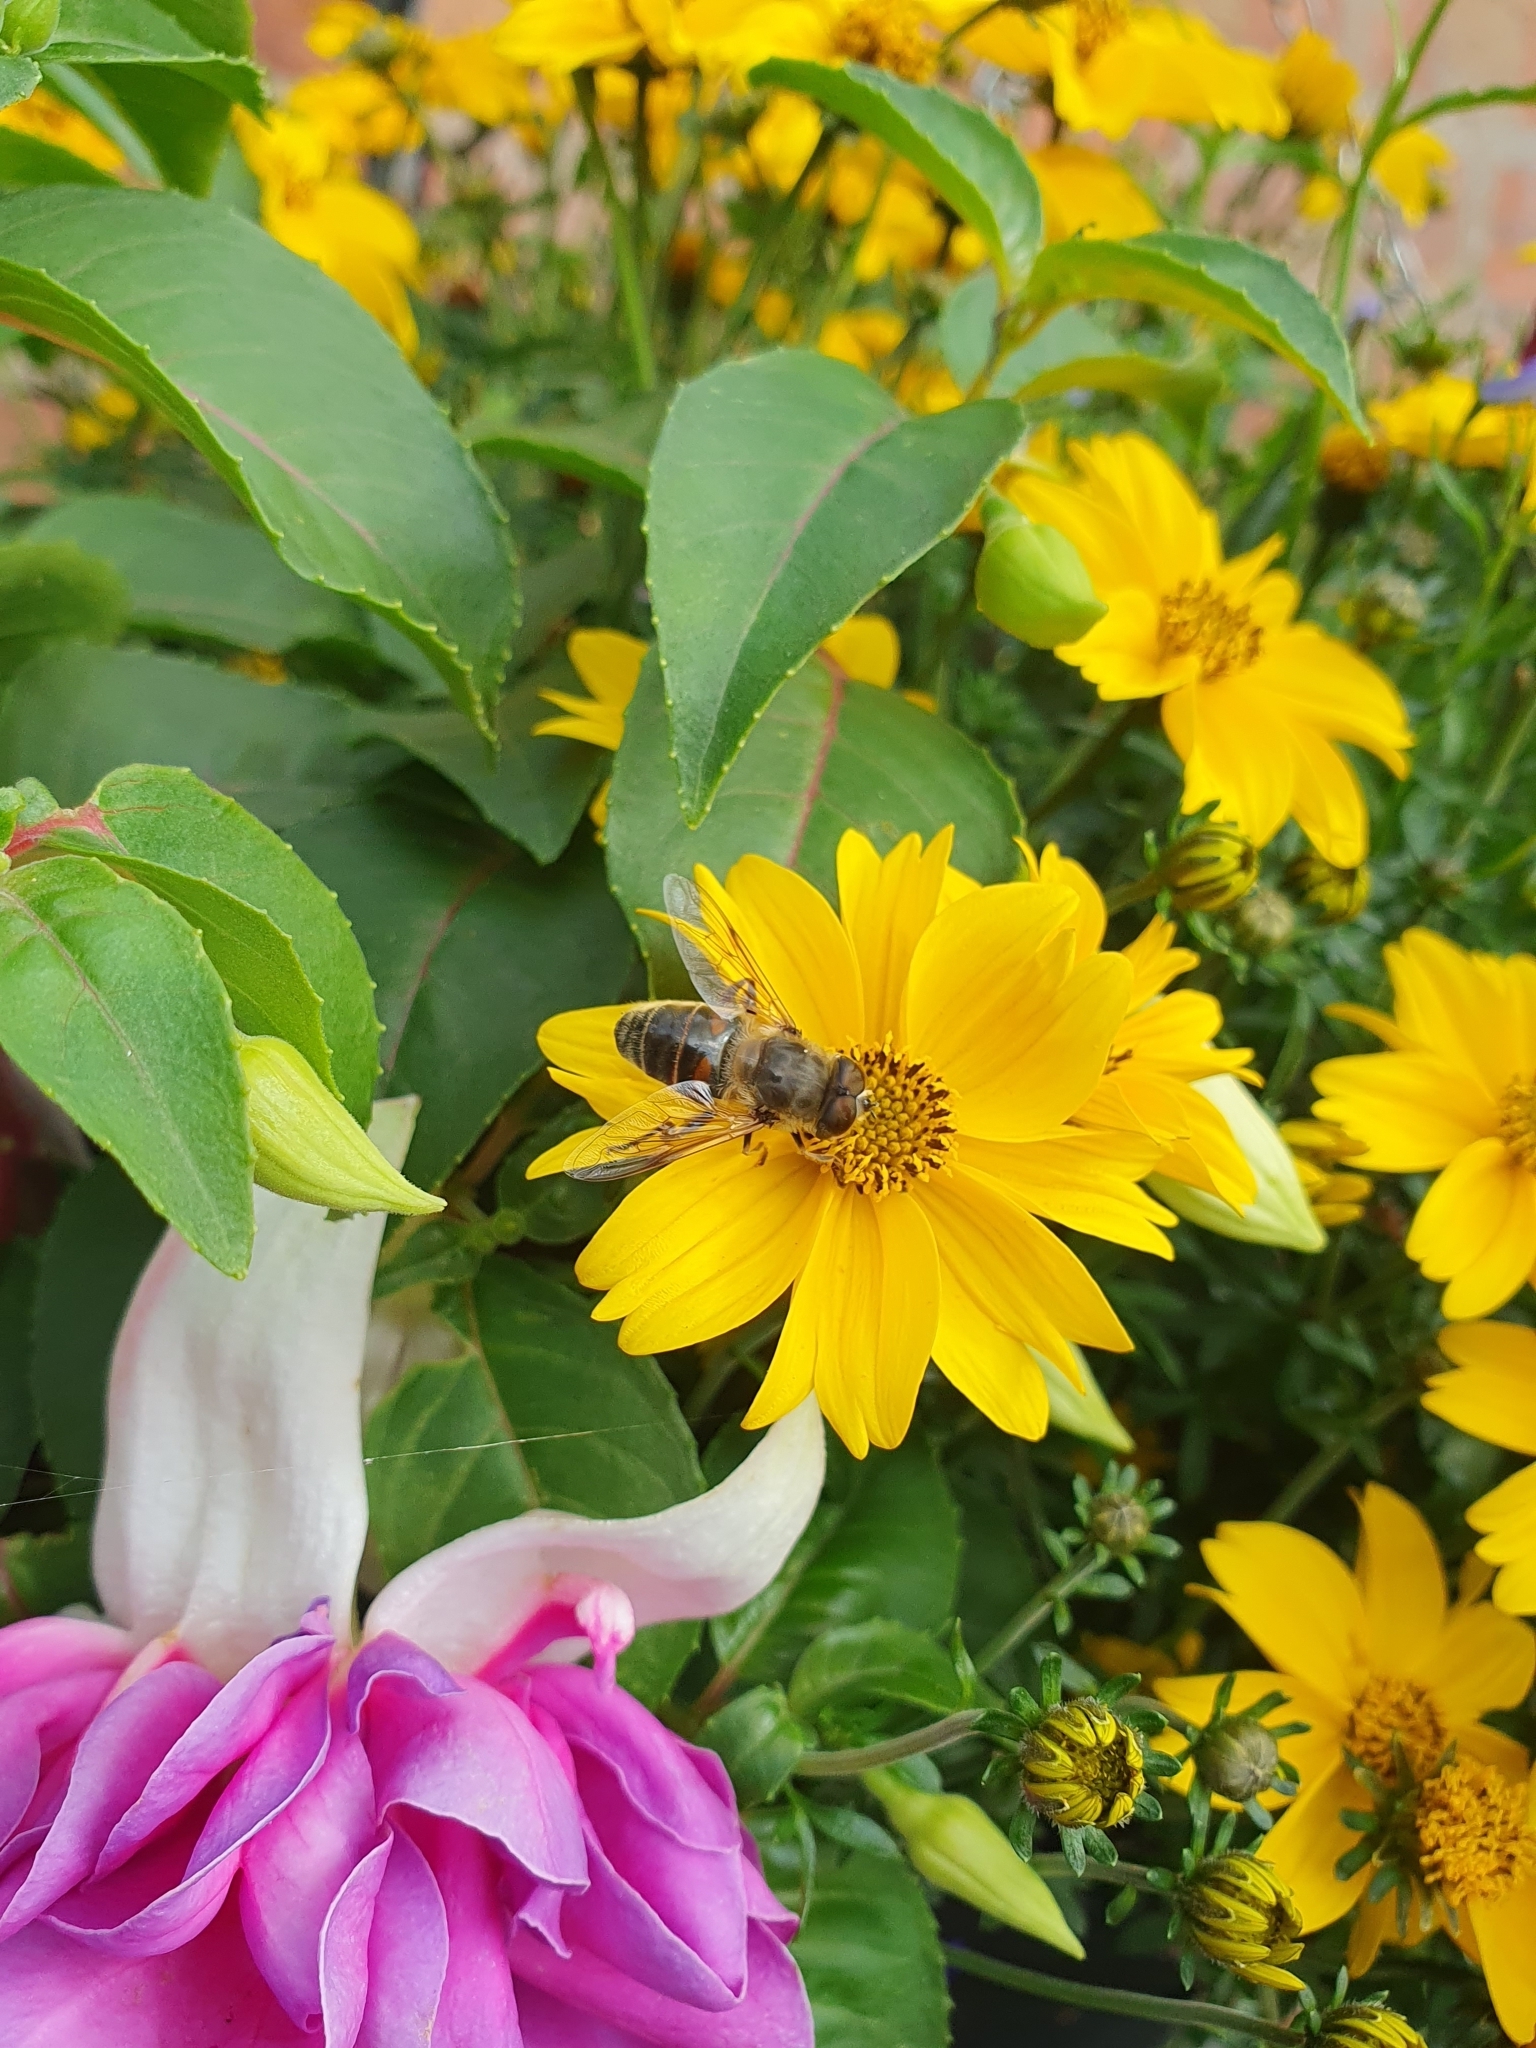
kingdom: Animalia
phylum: Arthropoda
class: Insecta
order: Diptera
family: Syrphidae
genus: Eristalis
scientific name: Eristalis tenax
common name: Drone fly
